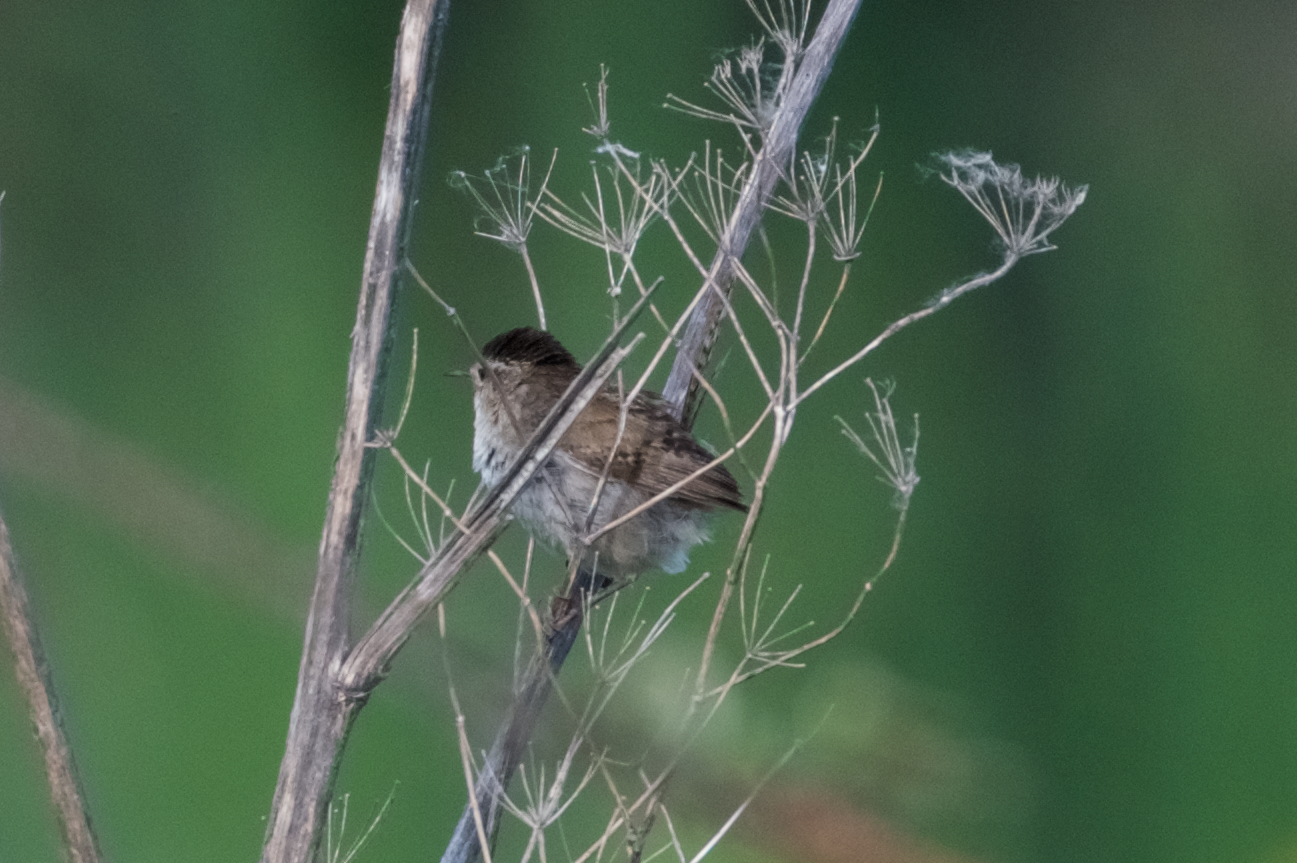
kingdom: Animalia
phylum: Chordata
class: Aves
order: Passeriformes
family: Troglodytidae
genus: Cistothorus
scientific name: Cistothorus palustris
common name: Marsh wren
